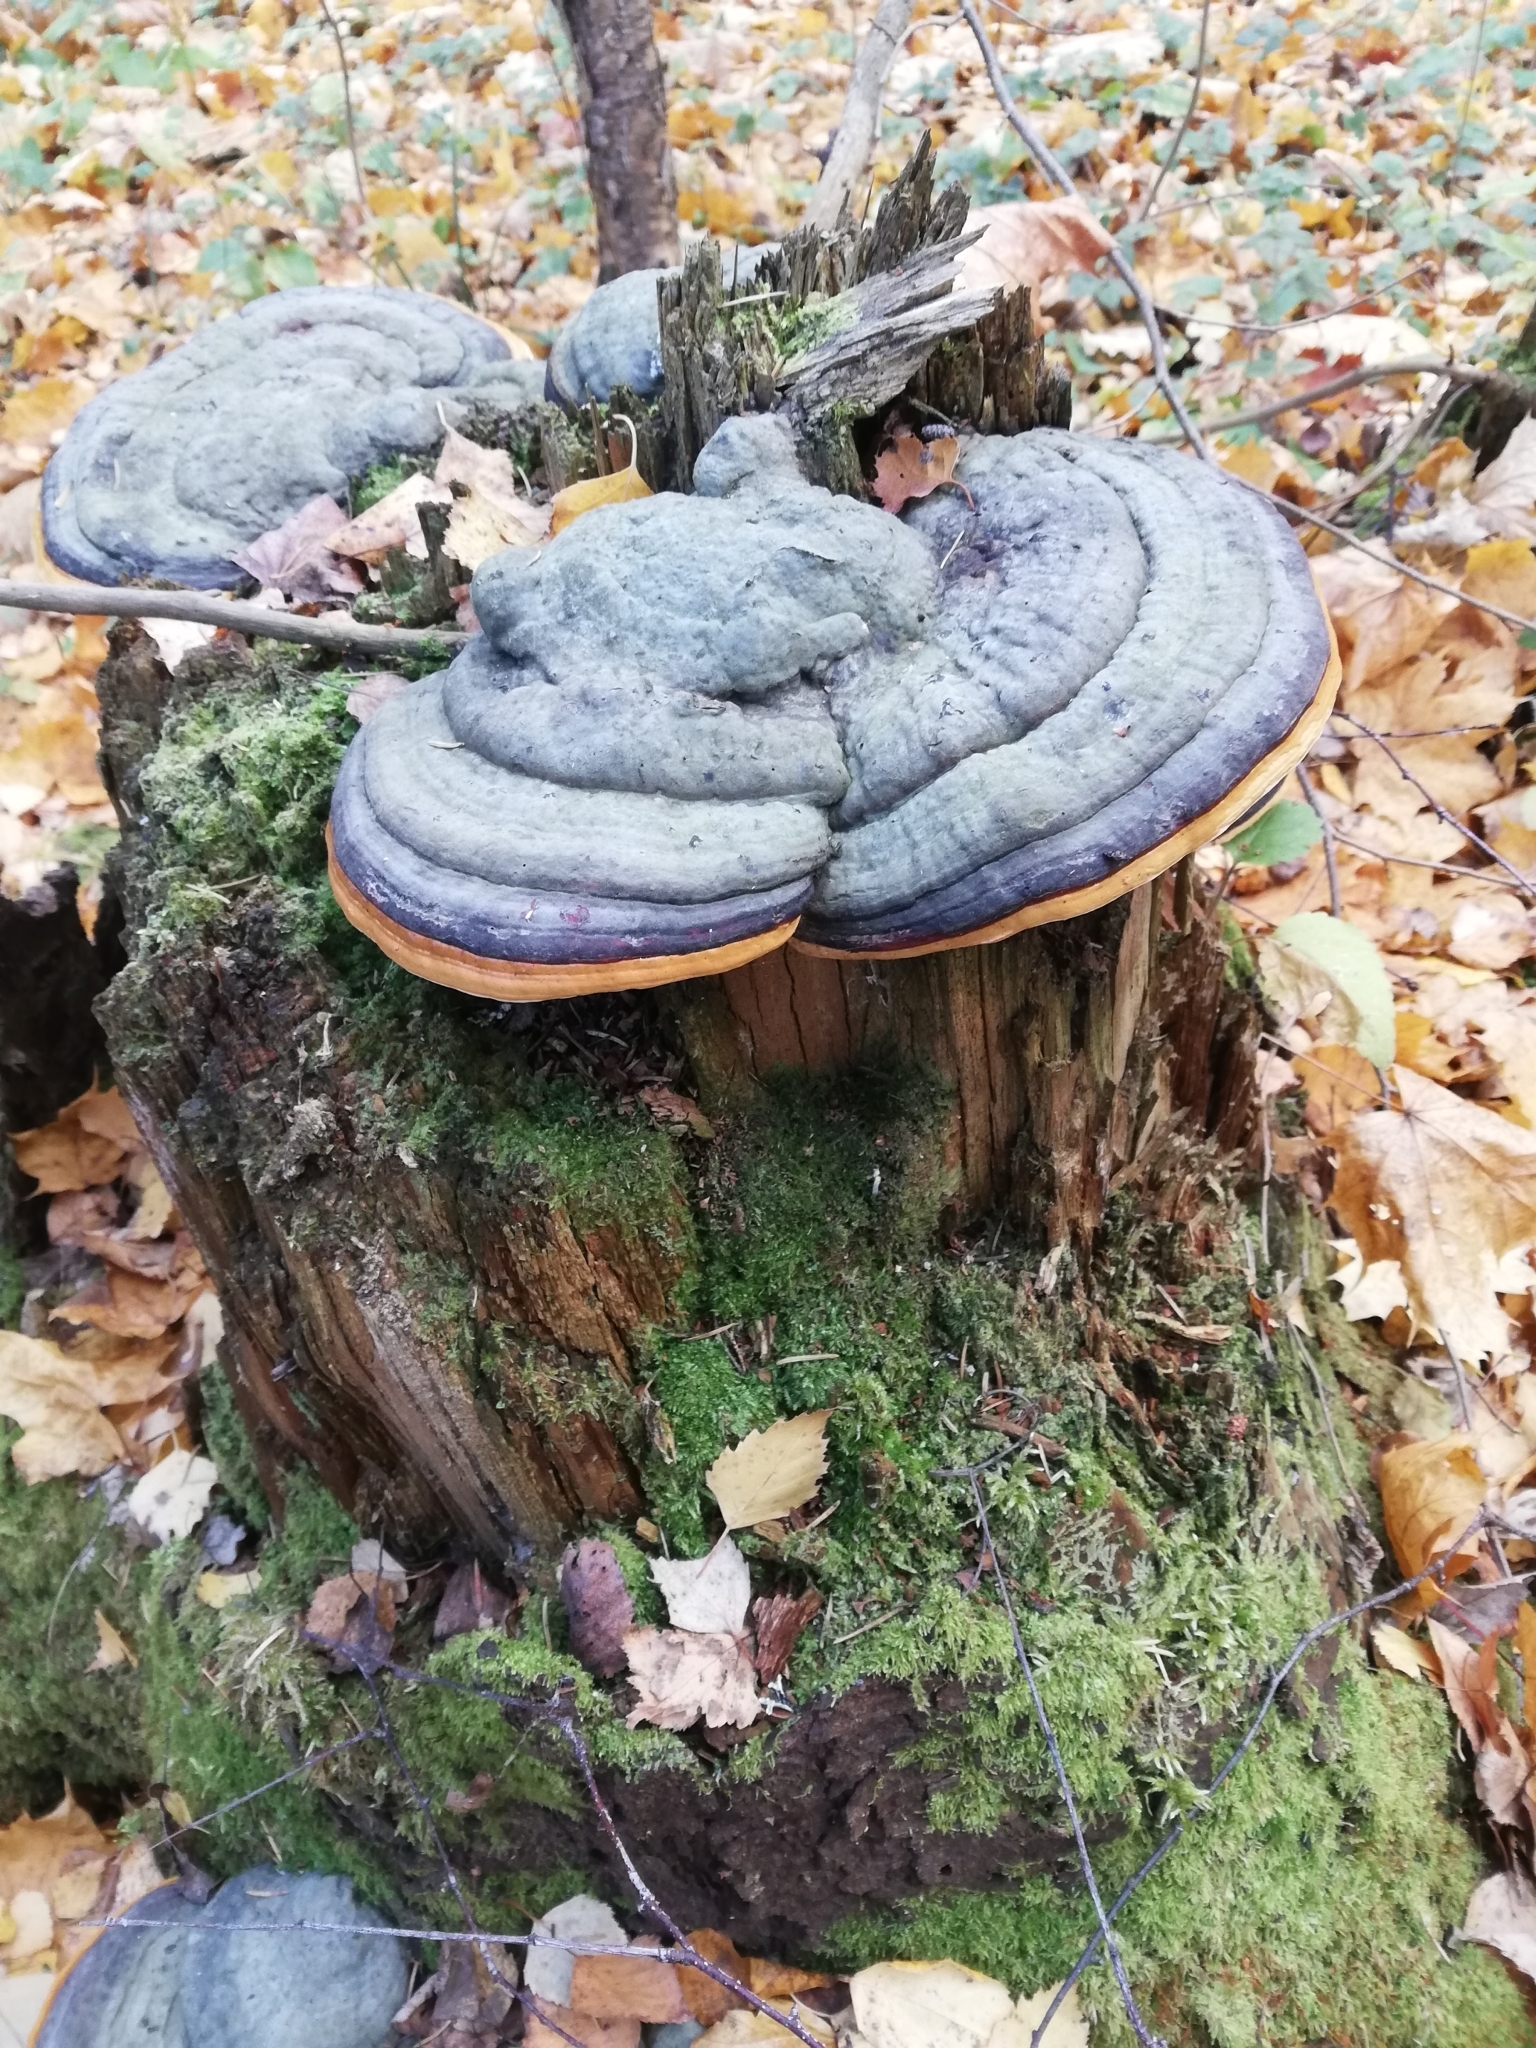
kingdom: Fungi
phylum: Basidiomycota
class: Agaricomycetes
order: Polyporales
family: Fomitopsidaceae
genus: Fomitopsis
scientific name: Fomitopsis pinicola
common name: Red-belted bracket
